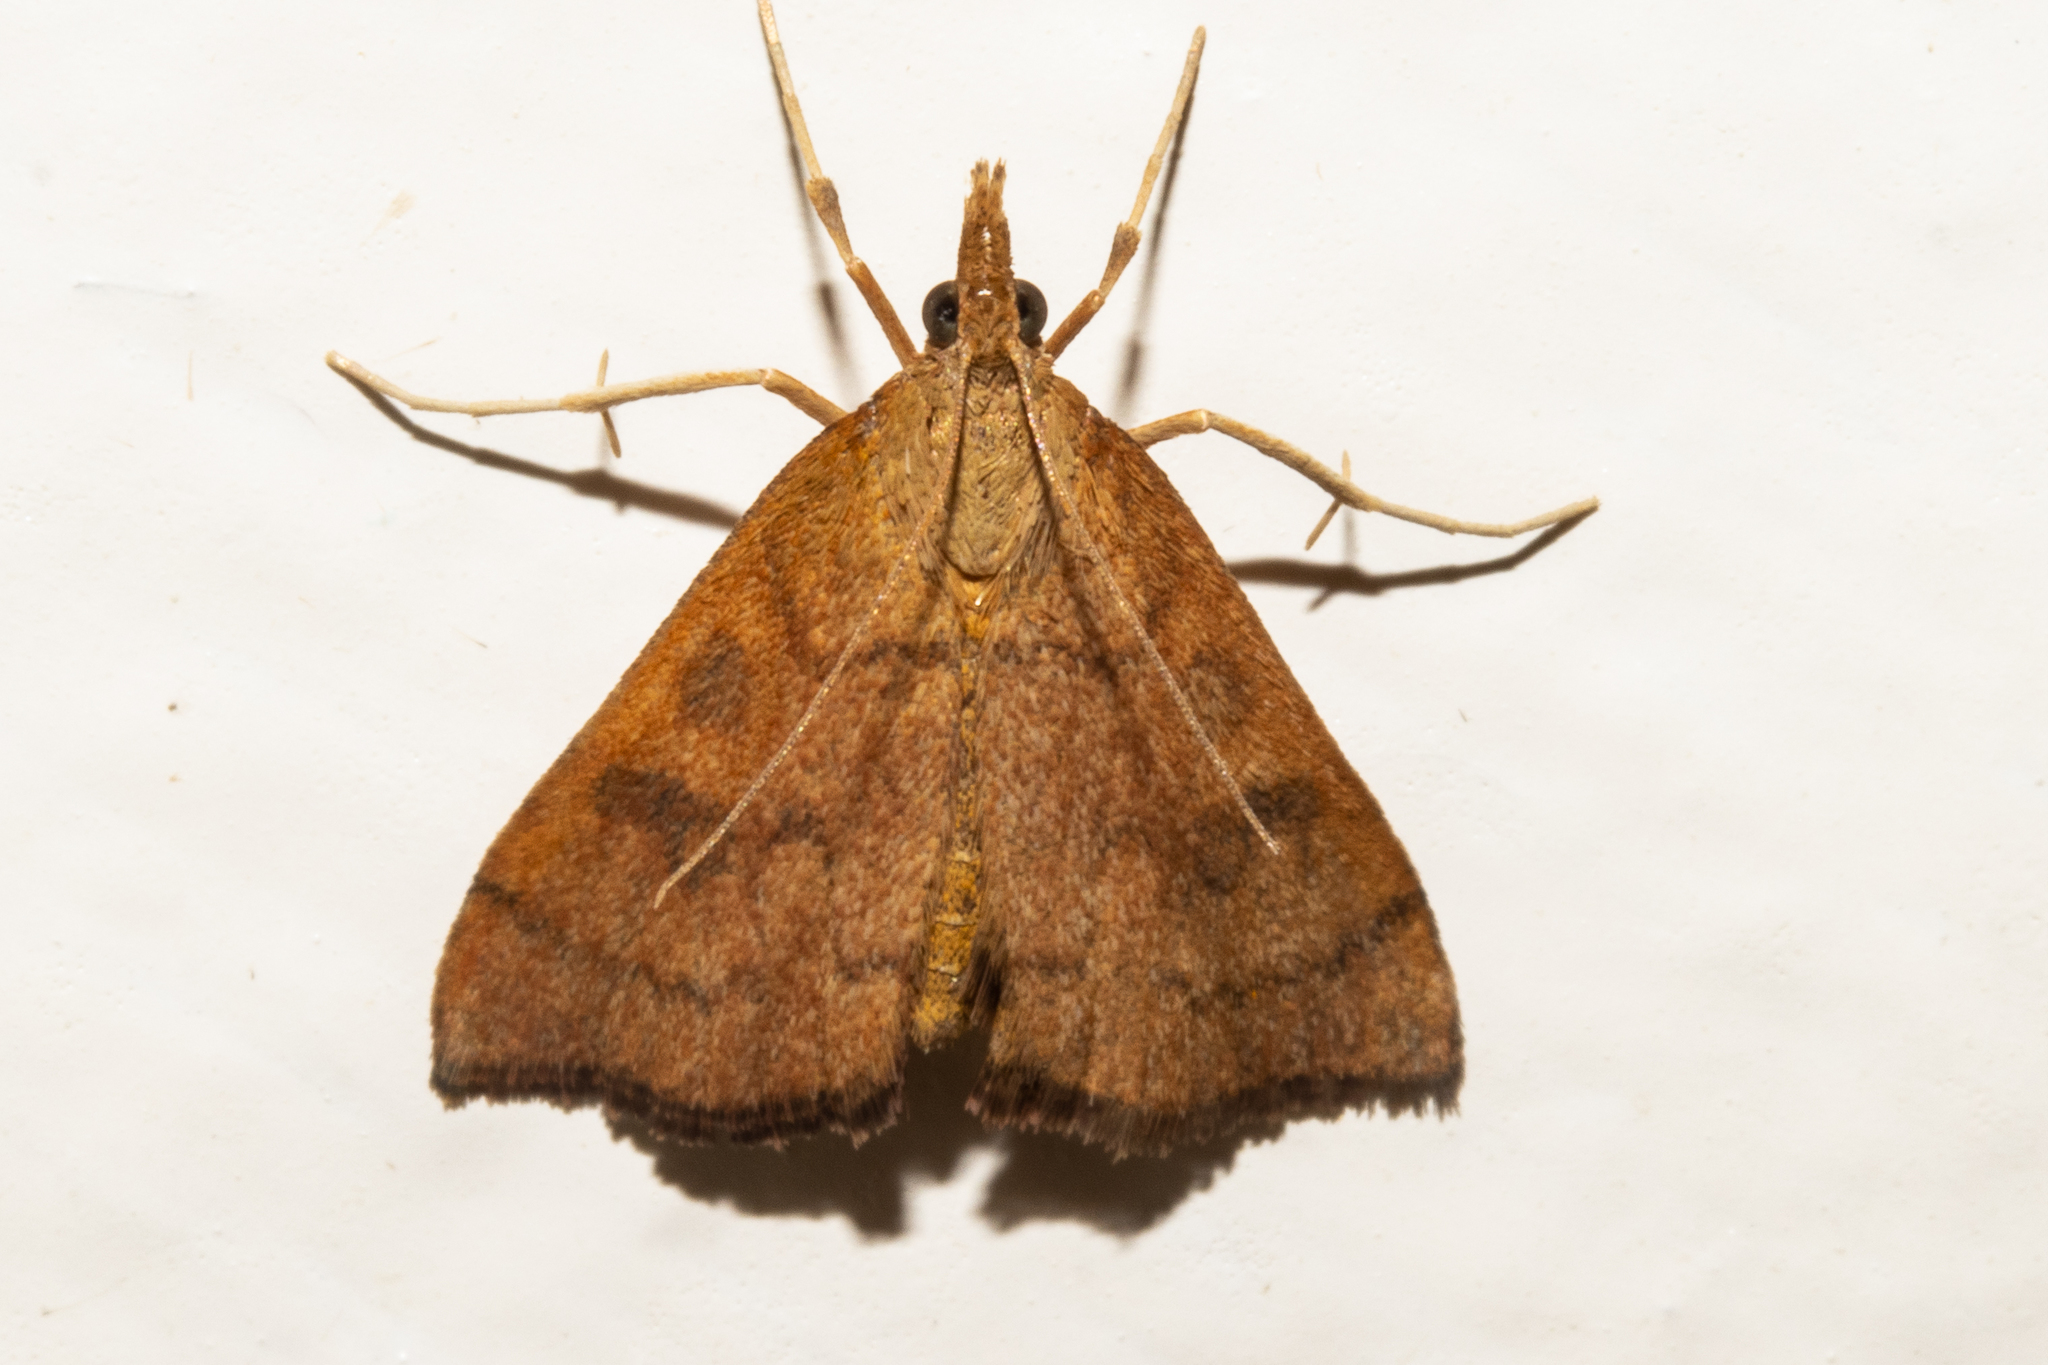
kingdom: Animalia
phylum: Arthropoda
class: Insecta
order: Lepidoptera
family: Crambidae
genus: Udea
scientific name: Udea Mnesictena flavidalis
